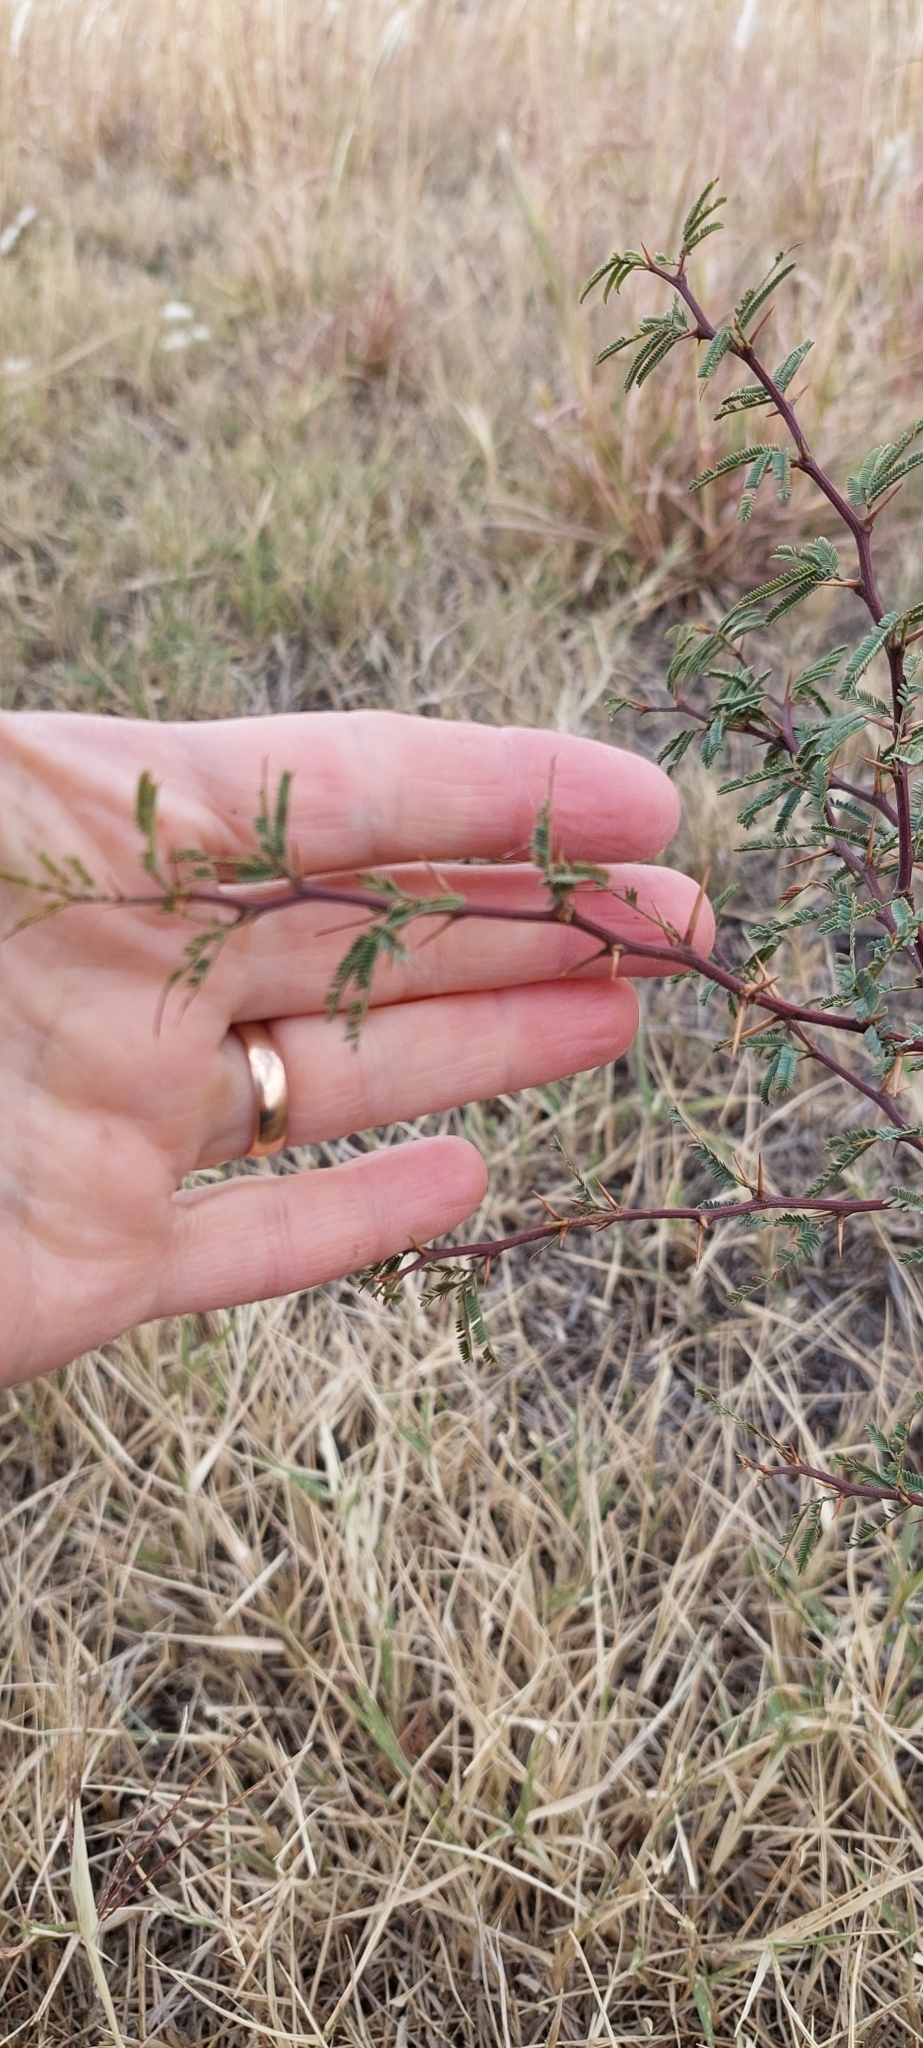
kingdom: Plantae
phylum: Tracheophyta
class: Magnoliopsida
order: Fabales
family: Fabaceae
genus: Prosopis
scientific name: Prosopis caldenia
